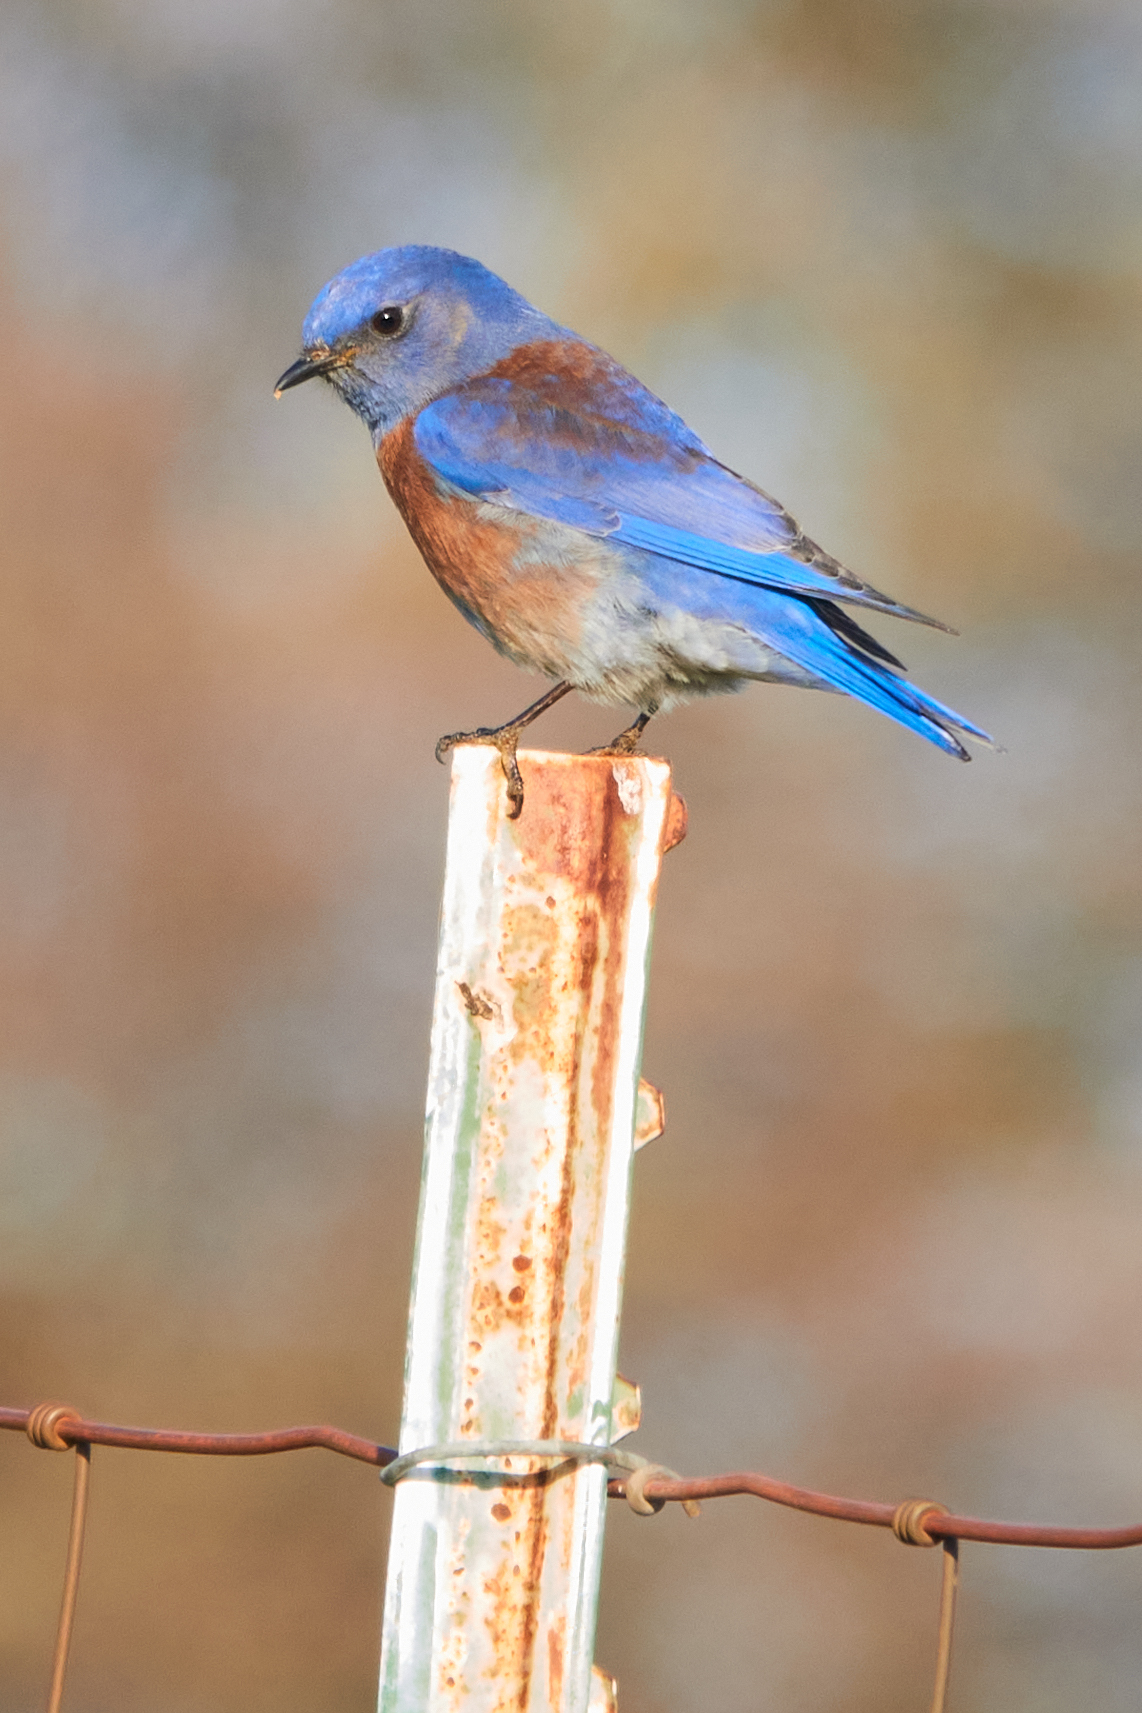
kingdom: Animalia
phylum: Chordata
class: Aves
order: Passeriformes
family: Turdidae
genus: Sialia
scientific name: Sialia mexicana
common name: Western bluebird
